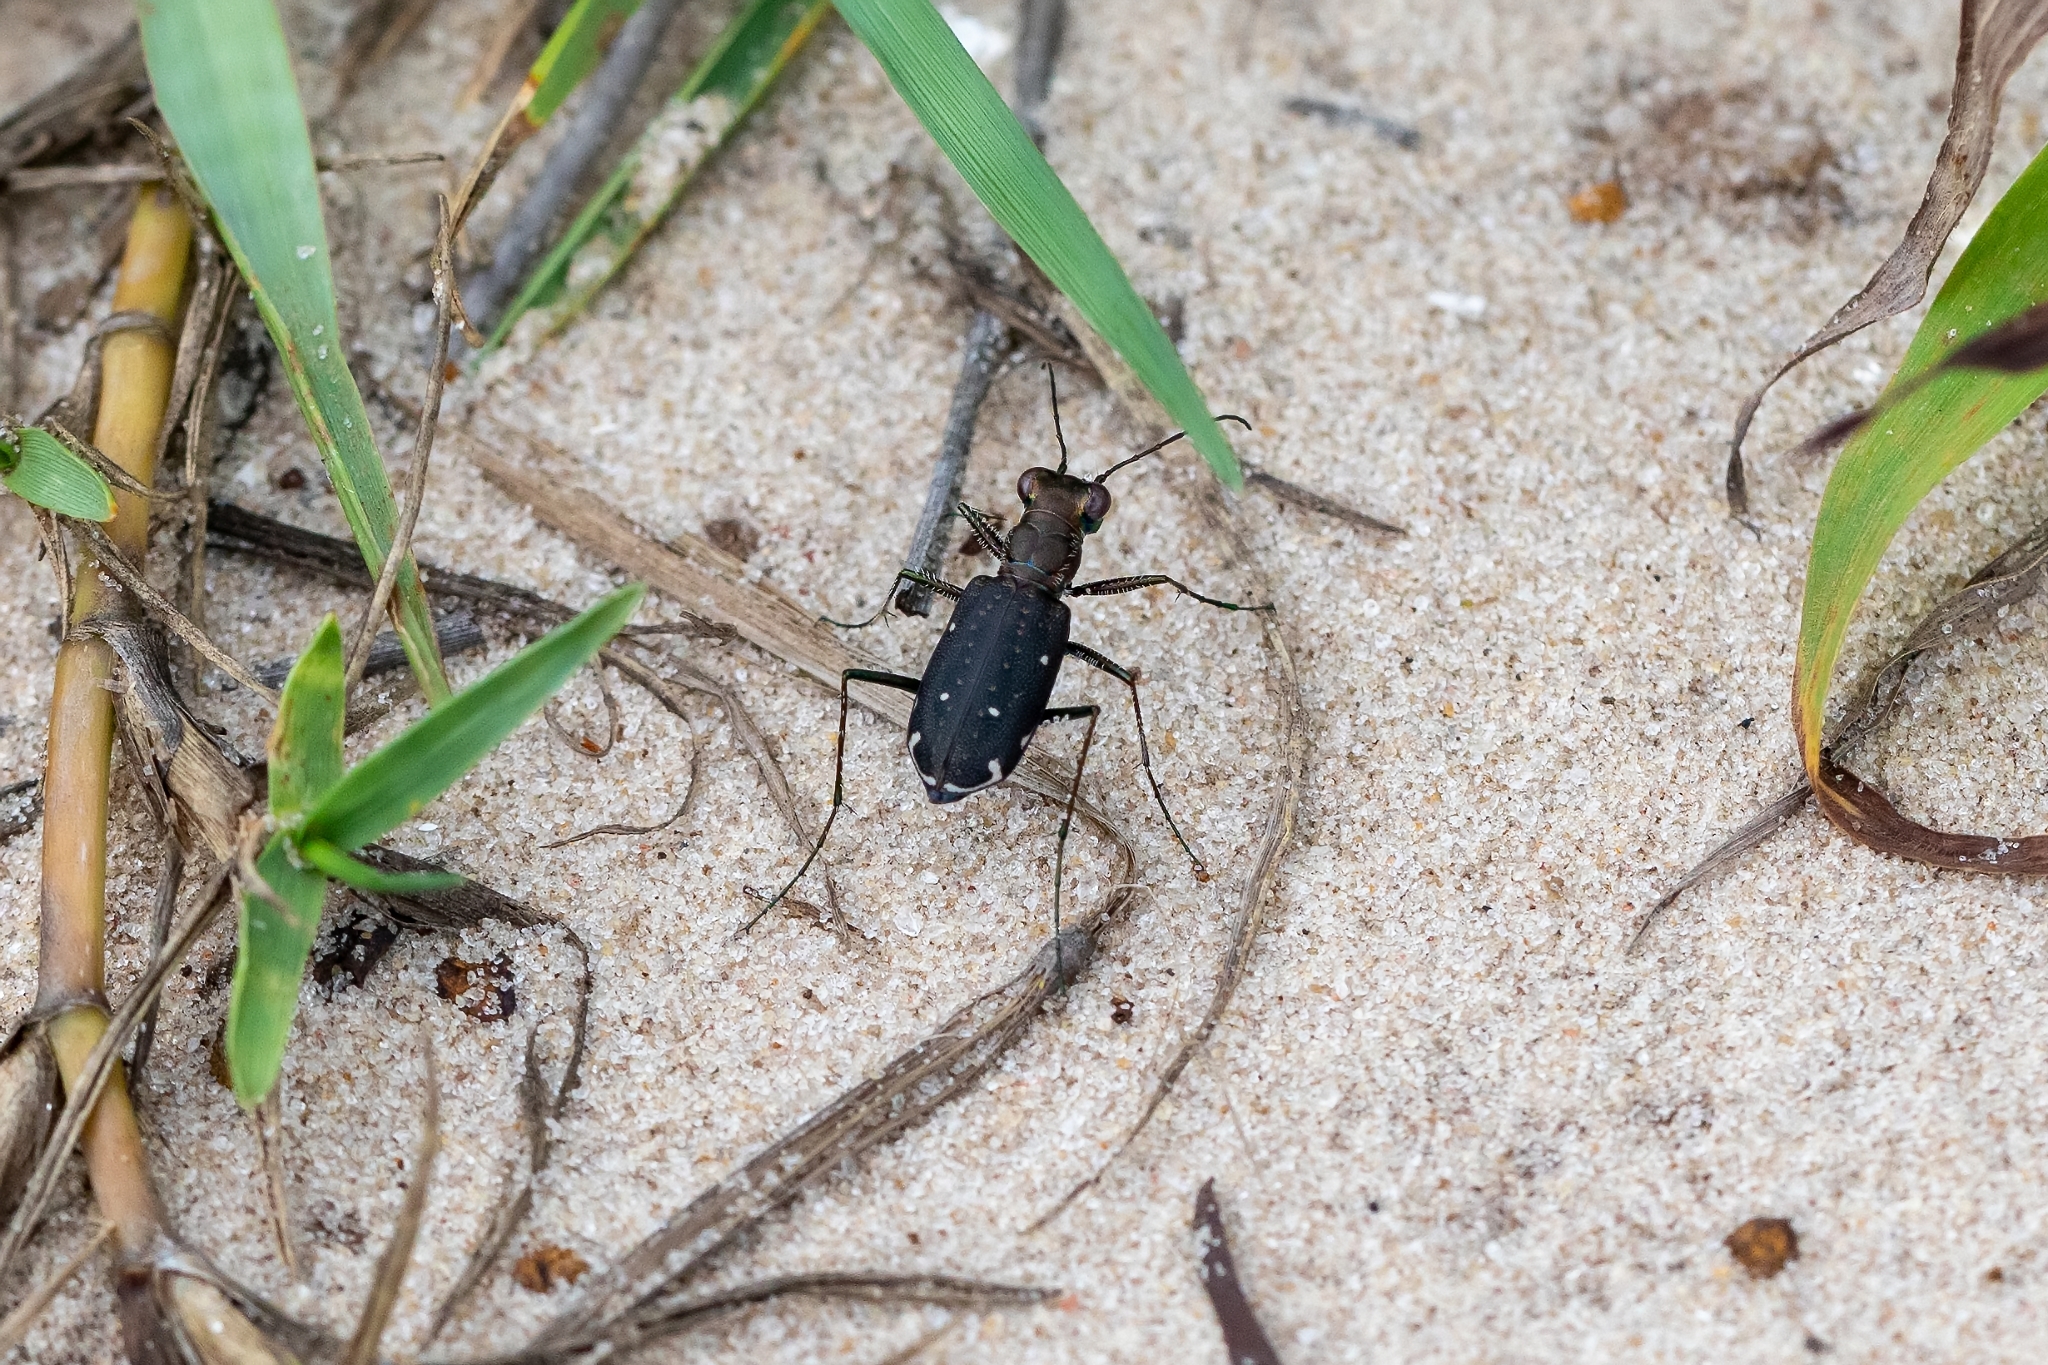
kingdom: Animalia
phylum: Arthropoda
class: Insecta
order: Coleoptera
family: Carabidae
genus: Cicindela
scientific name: Cicindela punctulata
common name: Punctured tiger beetle
